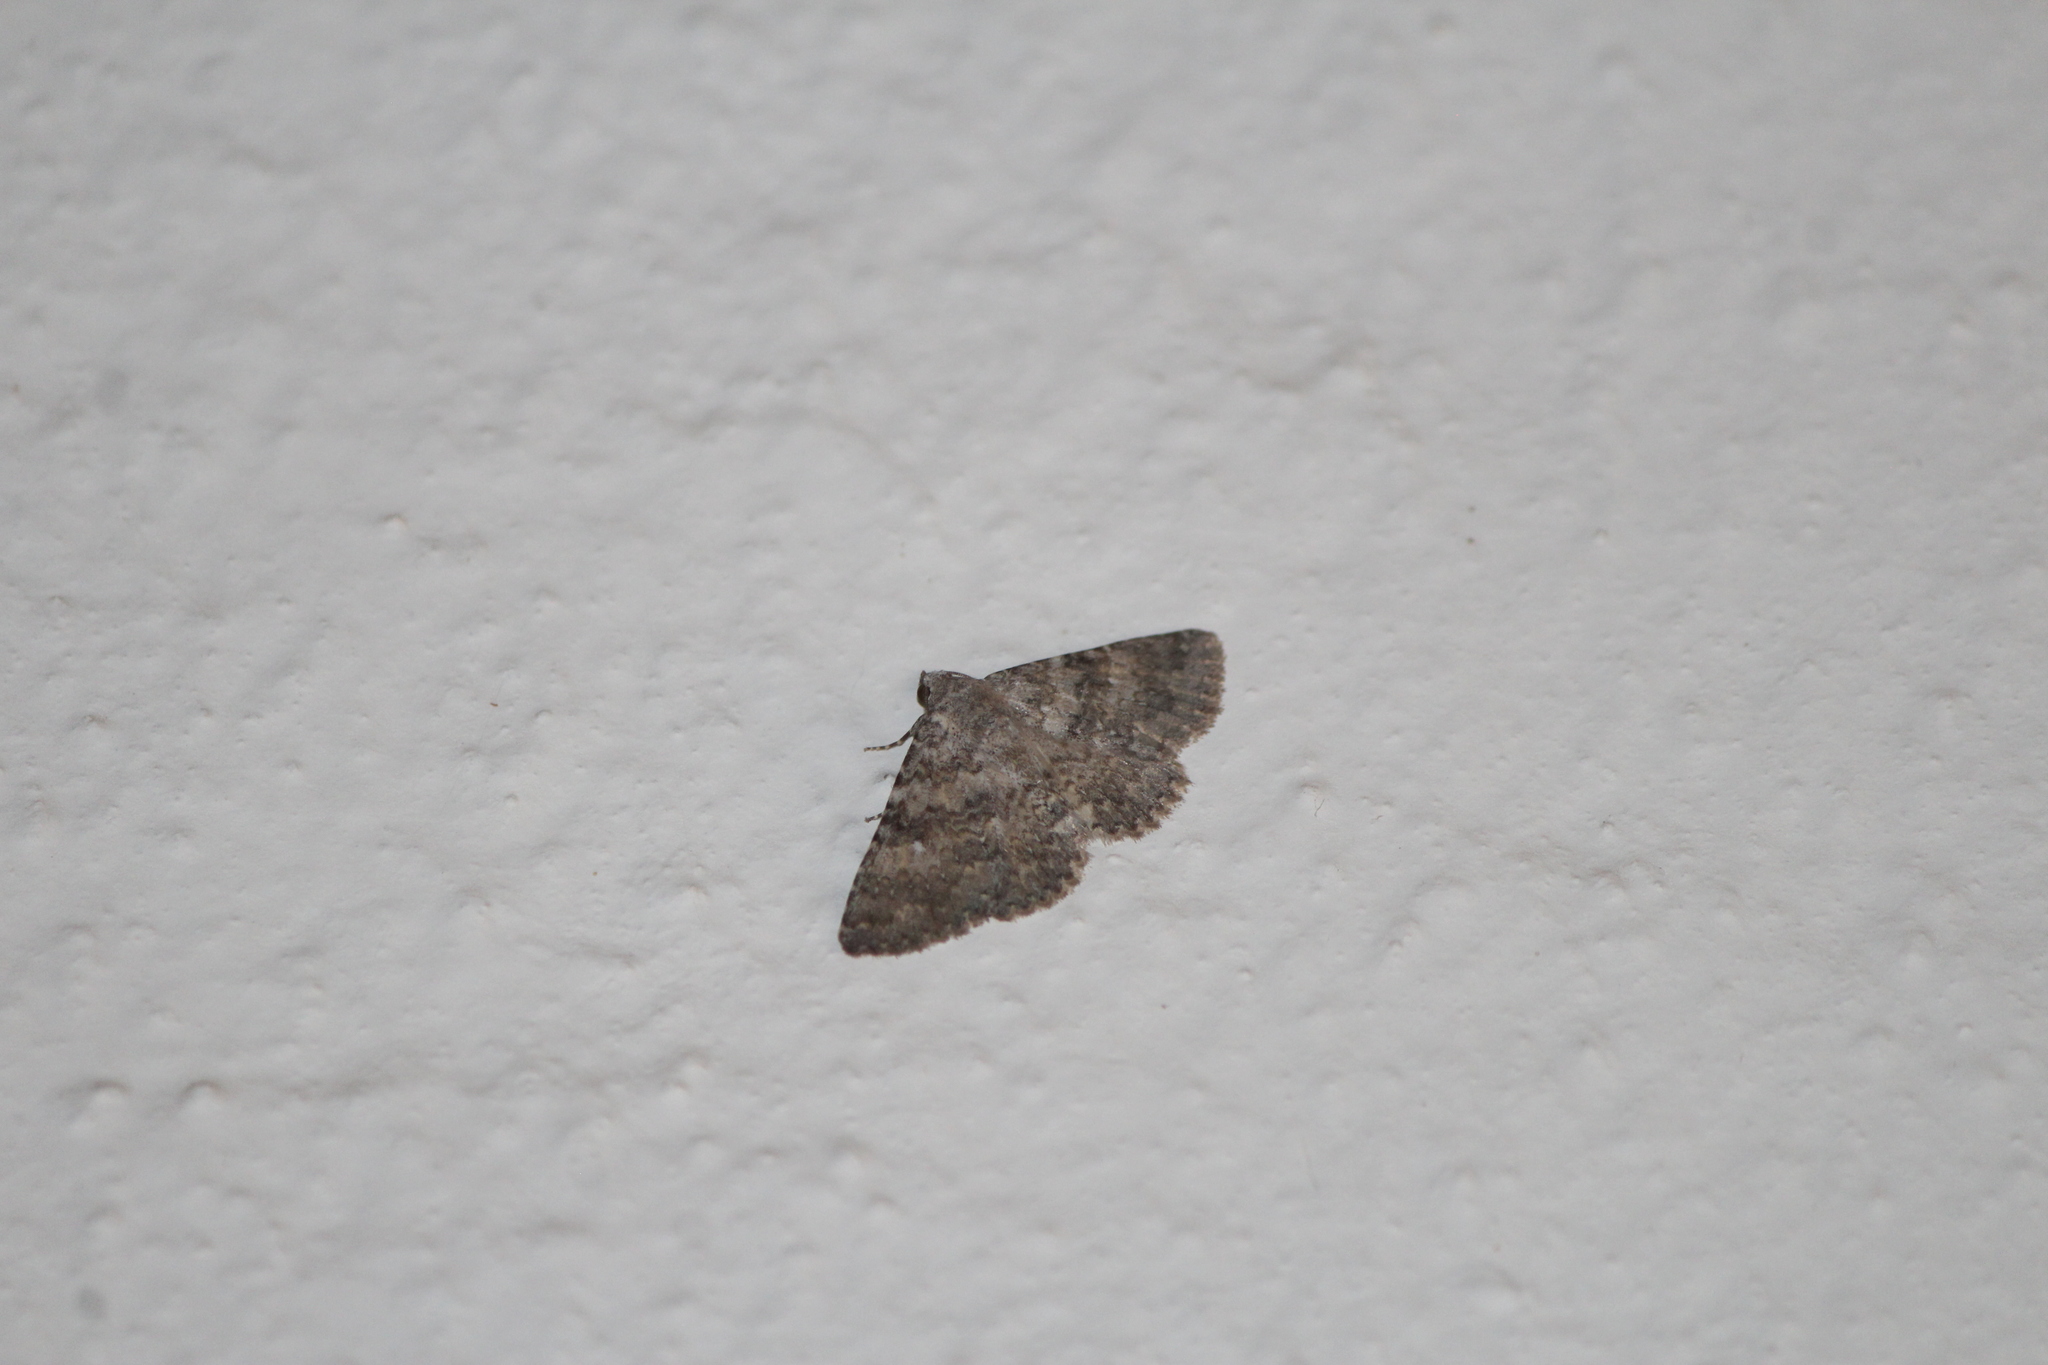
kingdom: Animalia
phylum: Arthropoda
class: Insecta
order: Lepidoptera
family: Erebidae
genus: Metalectra
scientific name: Metalectra discalis
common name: Common fungus moth
